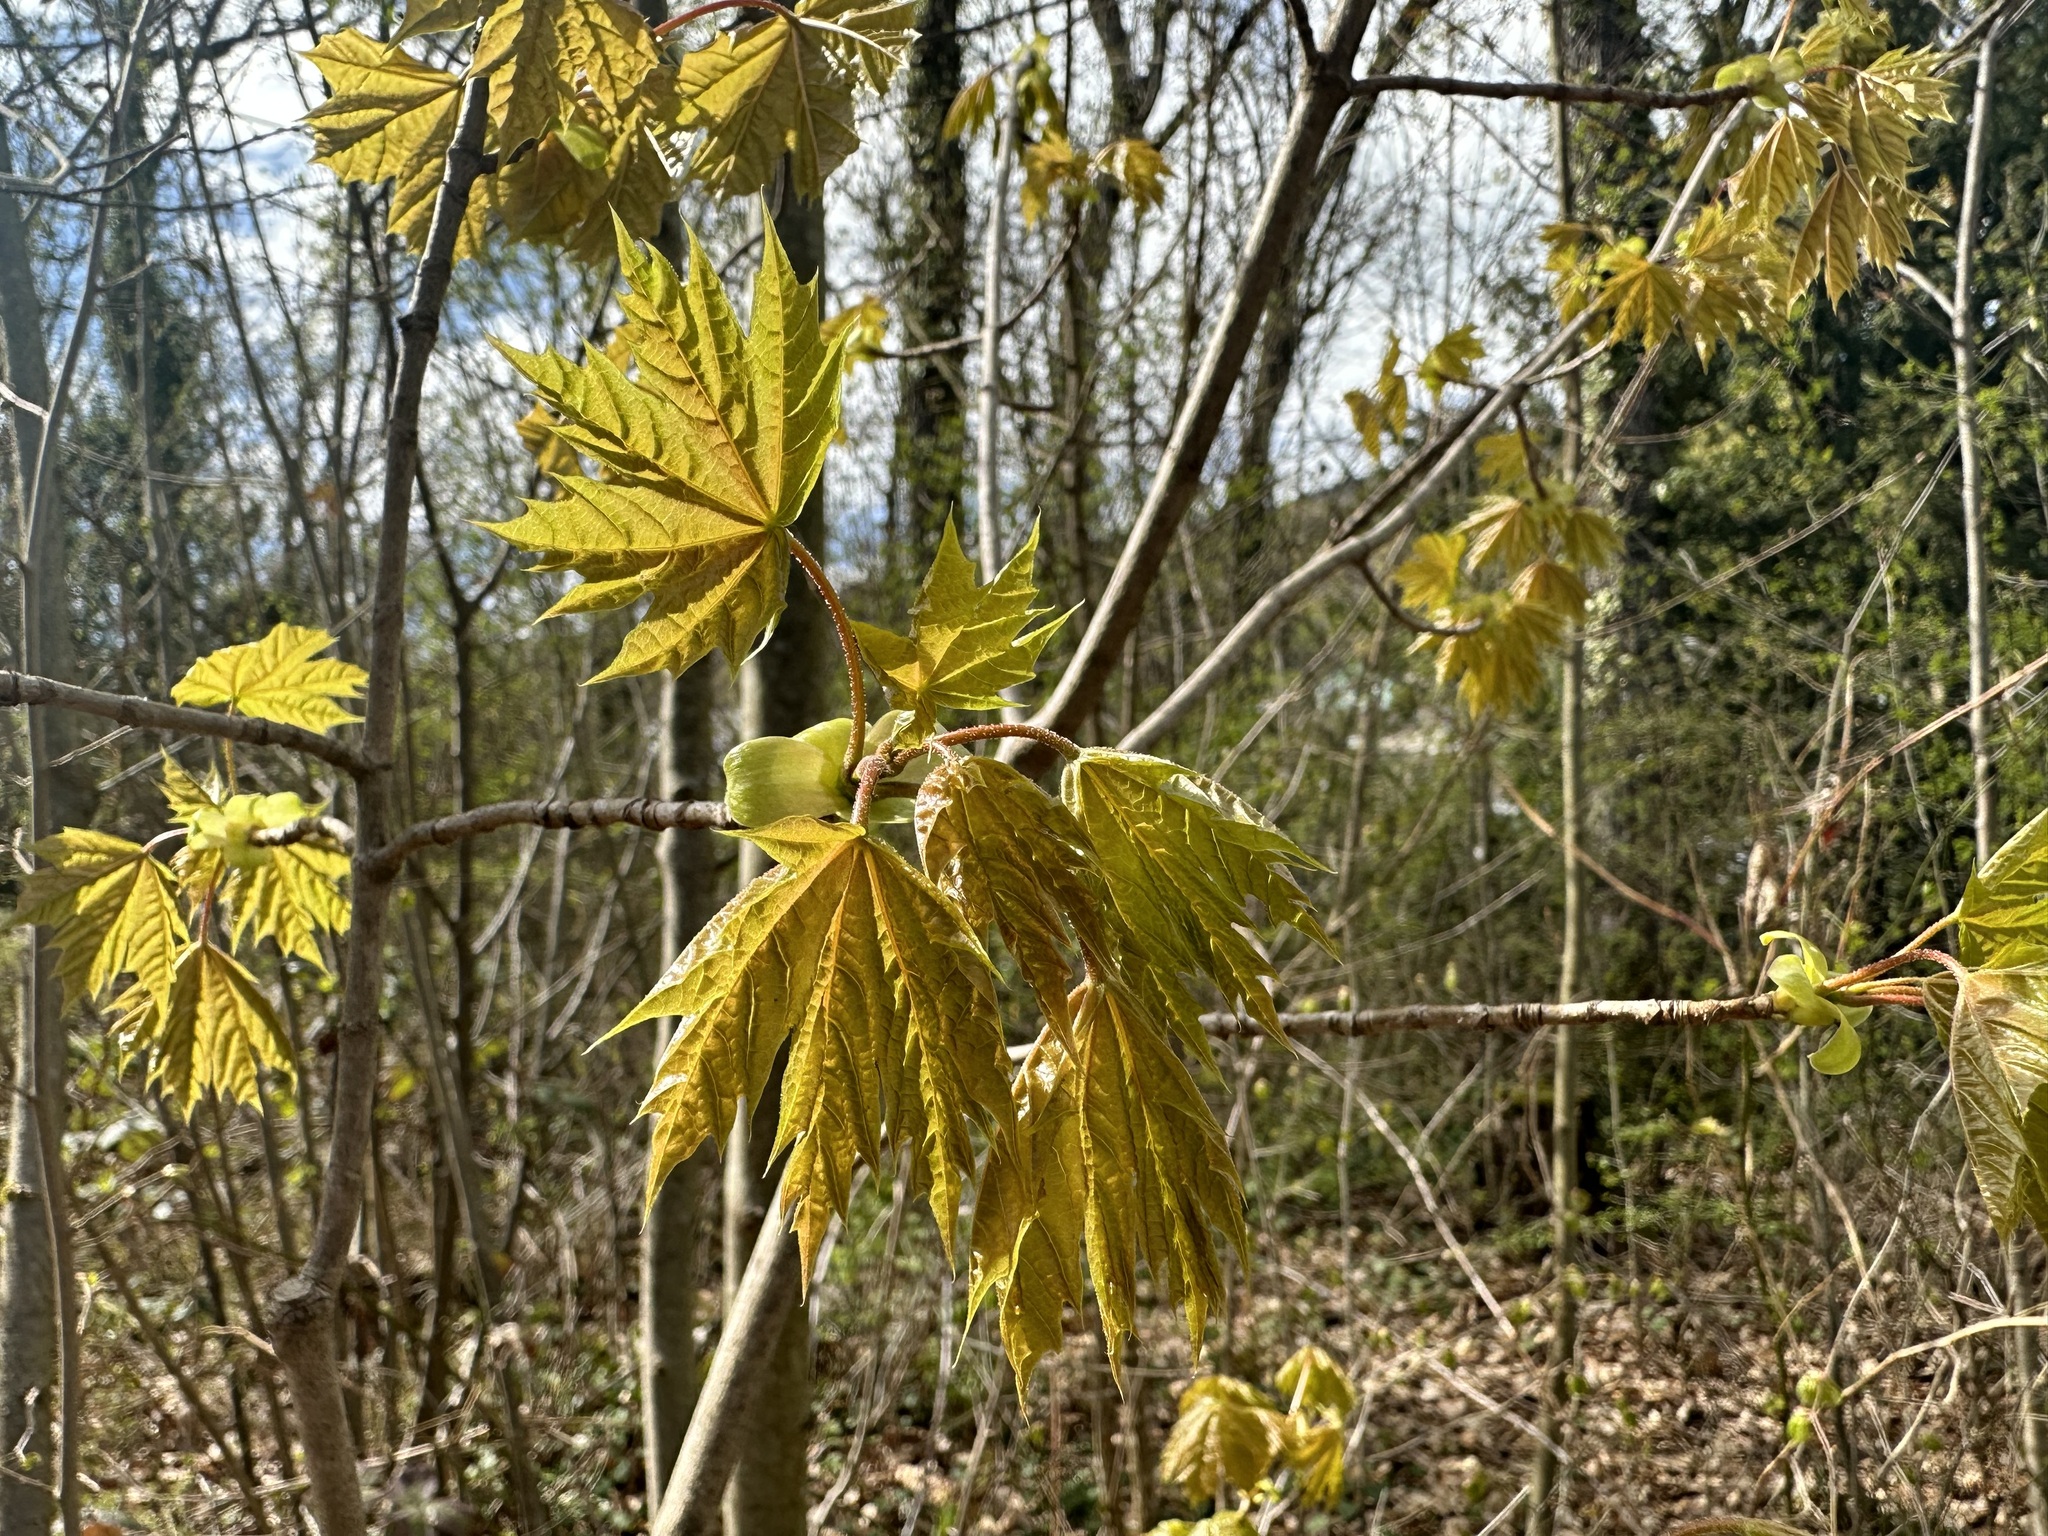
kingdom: Plantae
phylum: Tracheophyta
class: Magnoliopsida
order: Sapindales
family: Sapindaceae
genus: Acer
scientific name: Acer platanoides
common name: Norway maple
